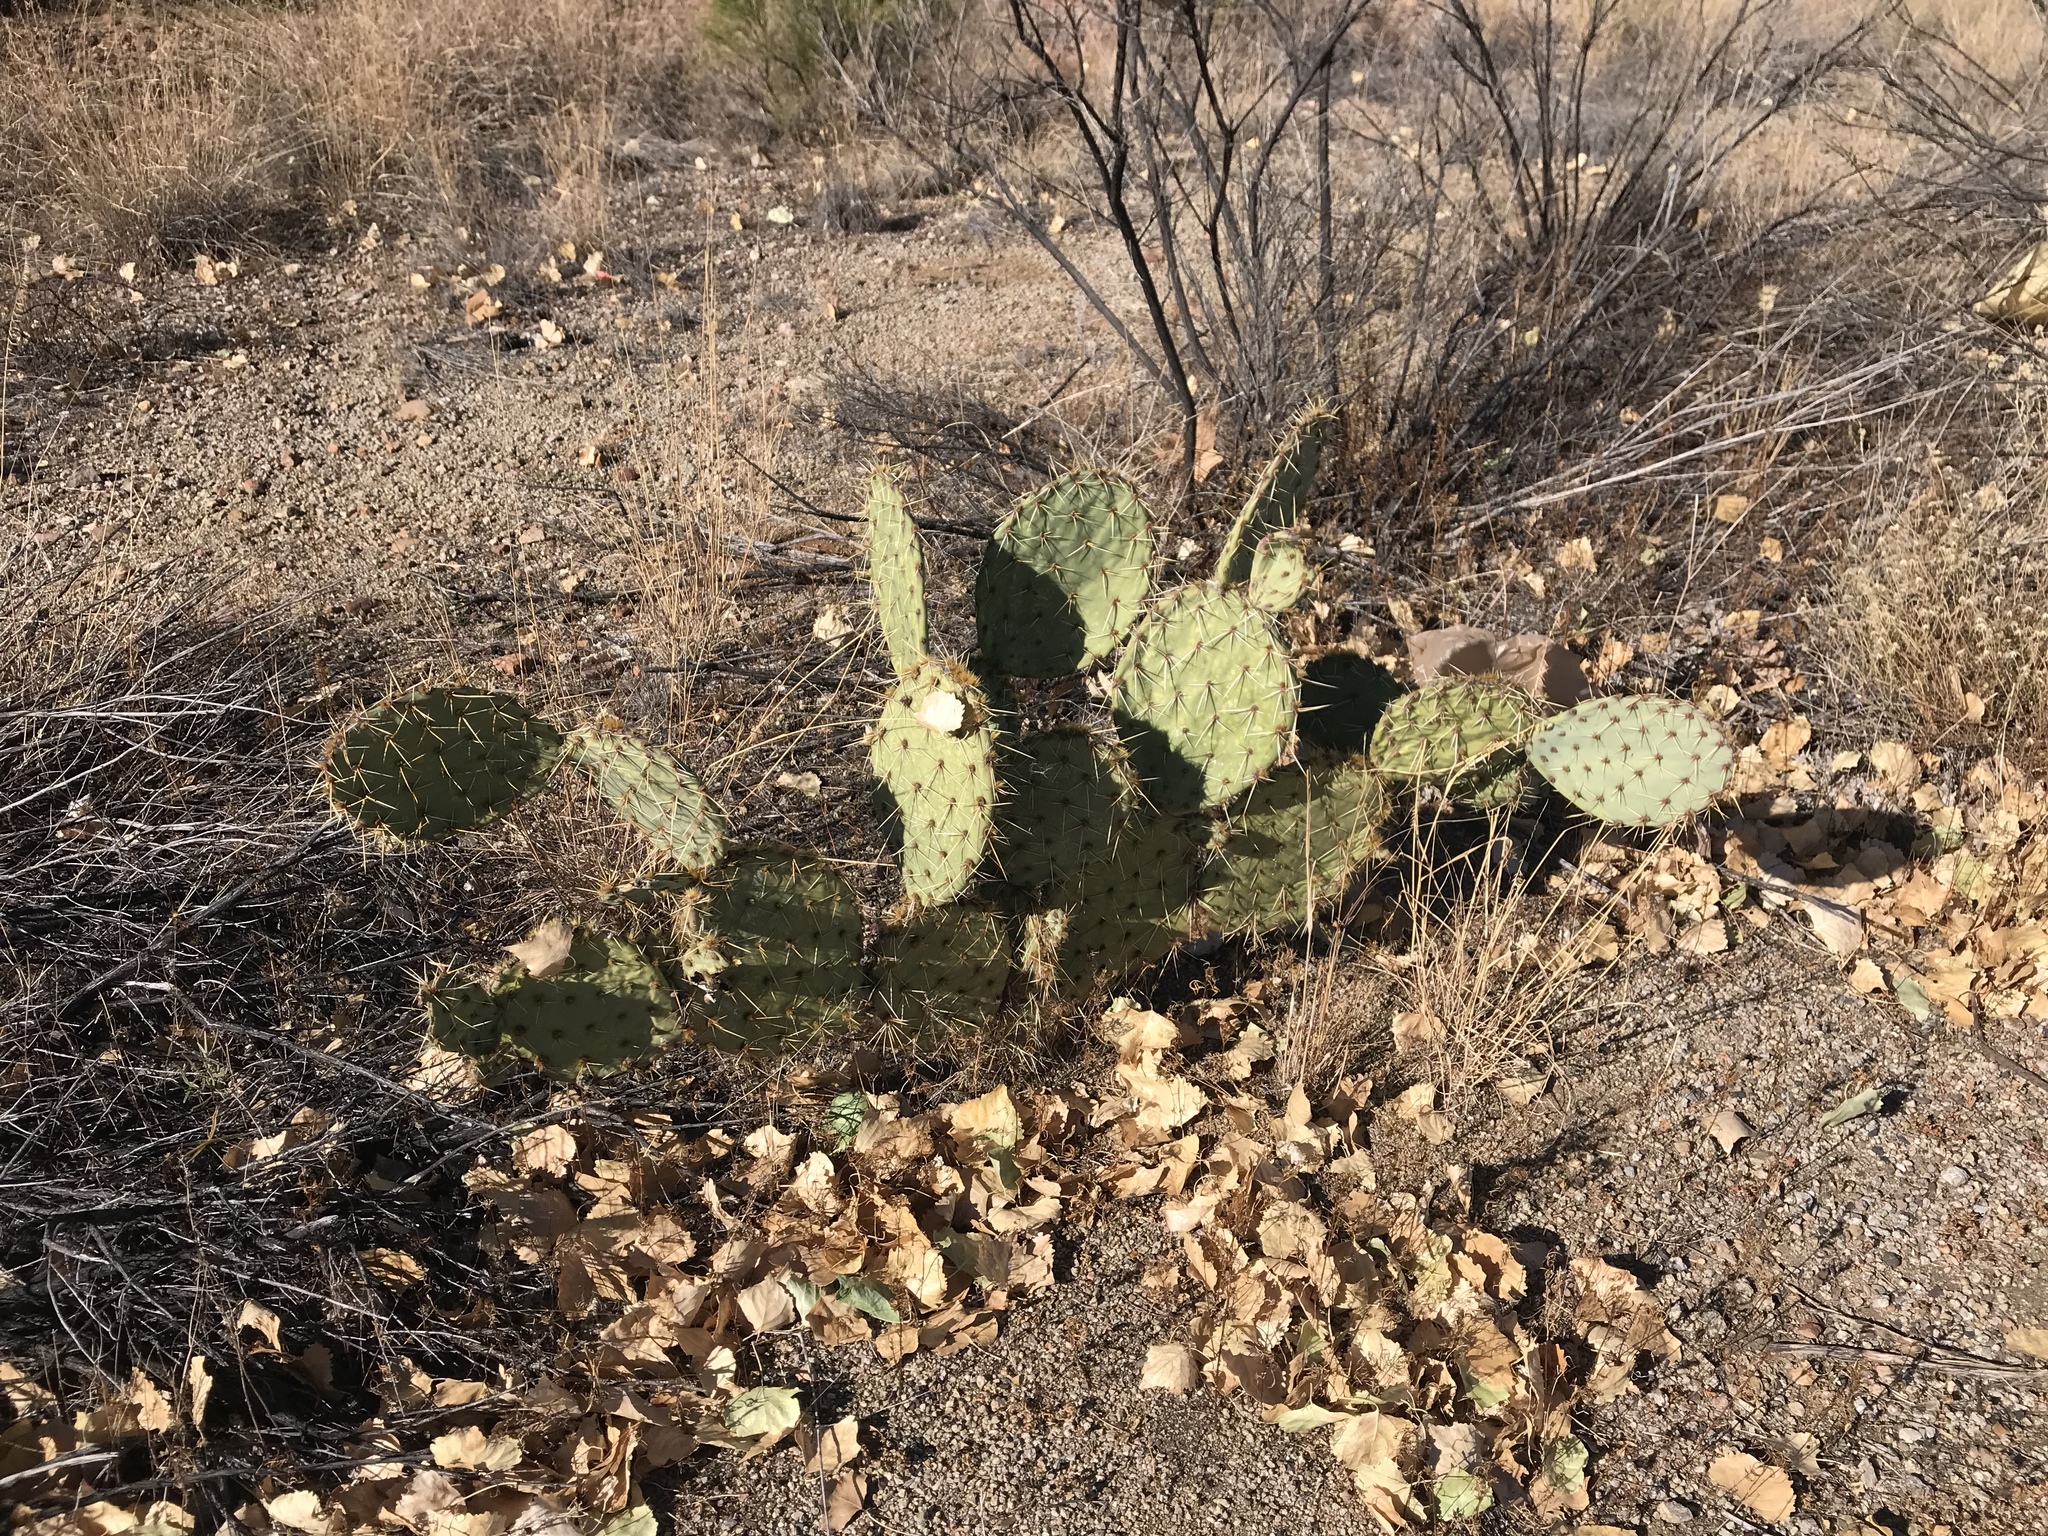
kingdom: Plantae
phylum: Tracheophyta
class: Magnoliopsida
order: Caryophyllales
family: Cactaceae
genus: Opuntia
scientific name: Opuntia phaeacantha
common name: New mexico prickly-pear
